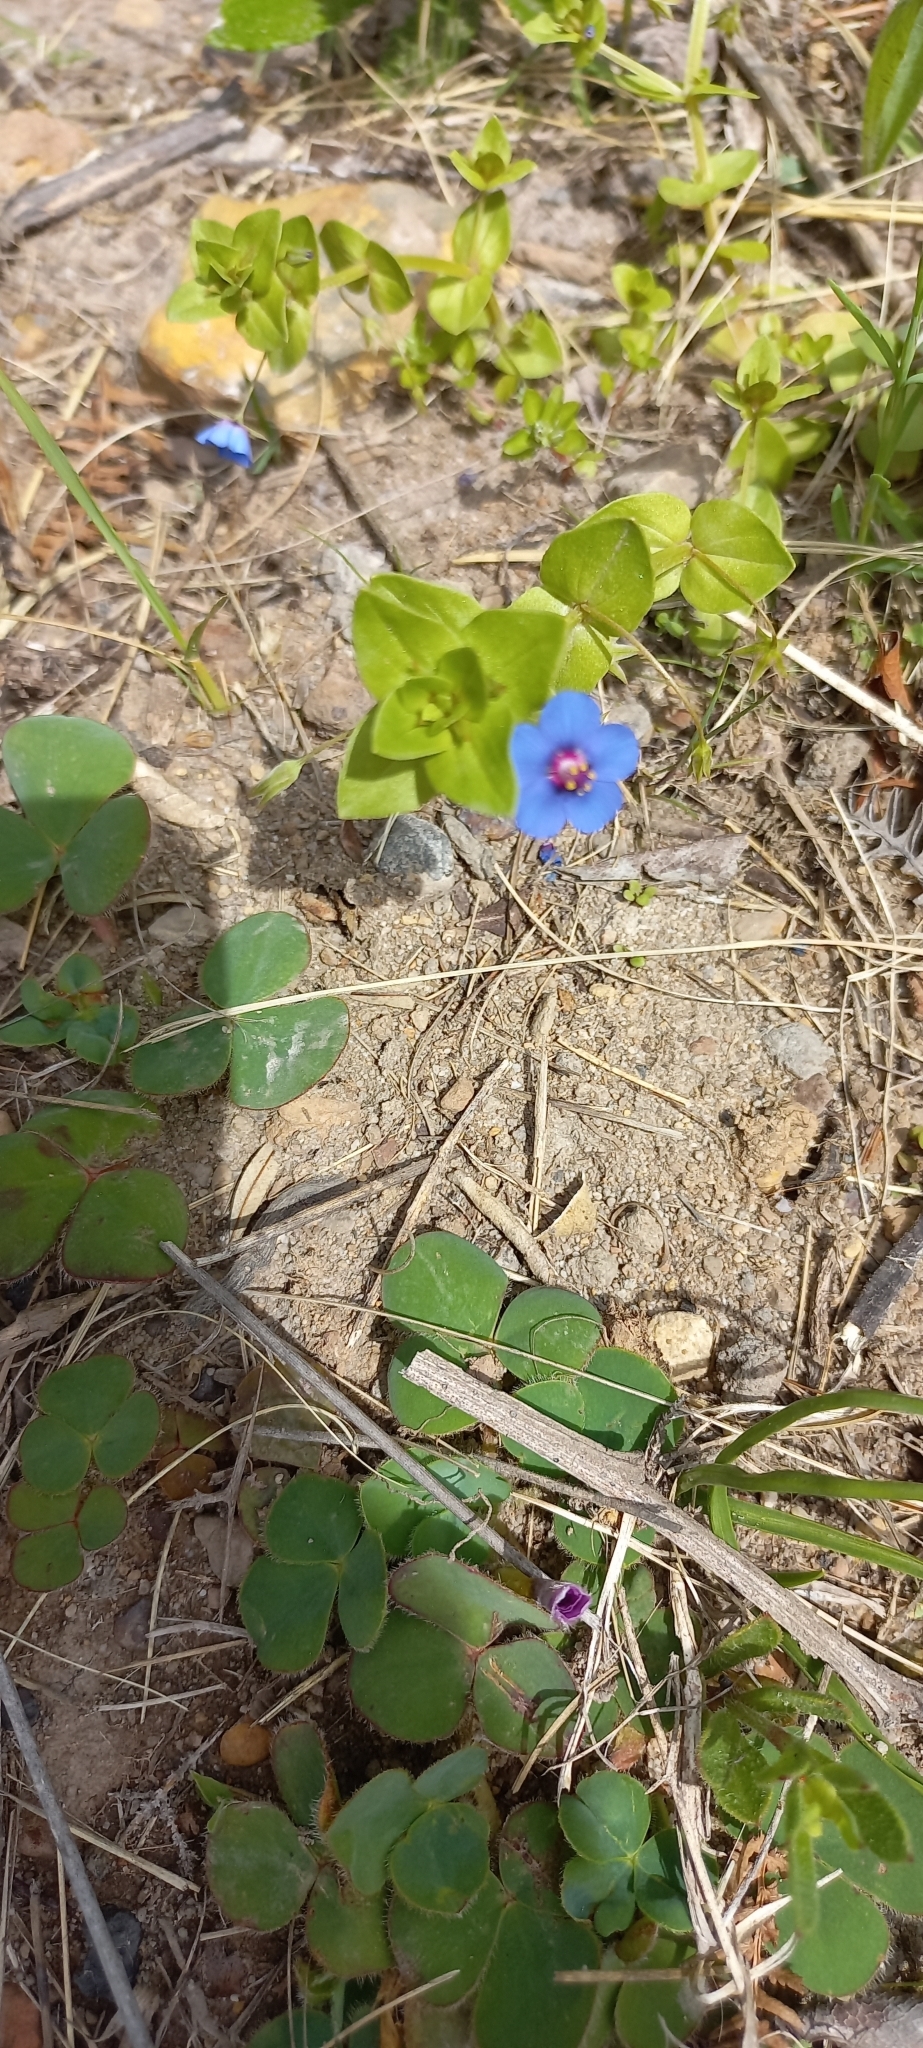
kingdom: Plantae
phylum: Tracheophyta
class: Magnoliopsida
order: Ericales
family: Primulaceae
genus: Lysimachia
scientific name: Lysimachia foemina
